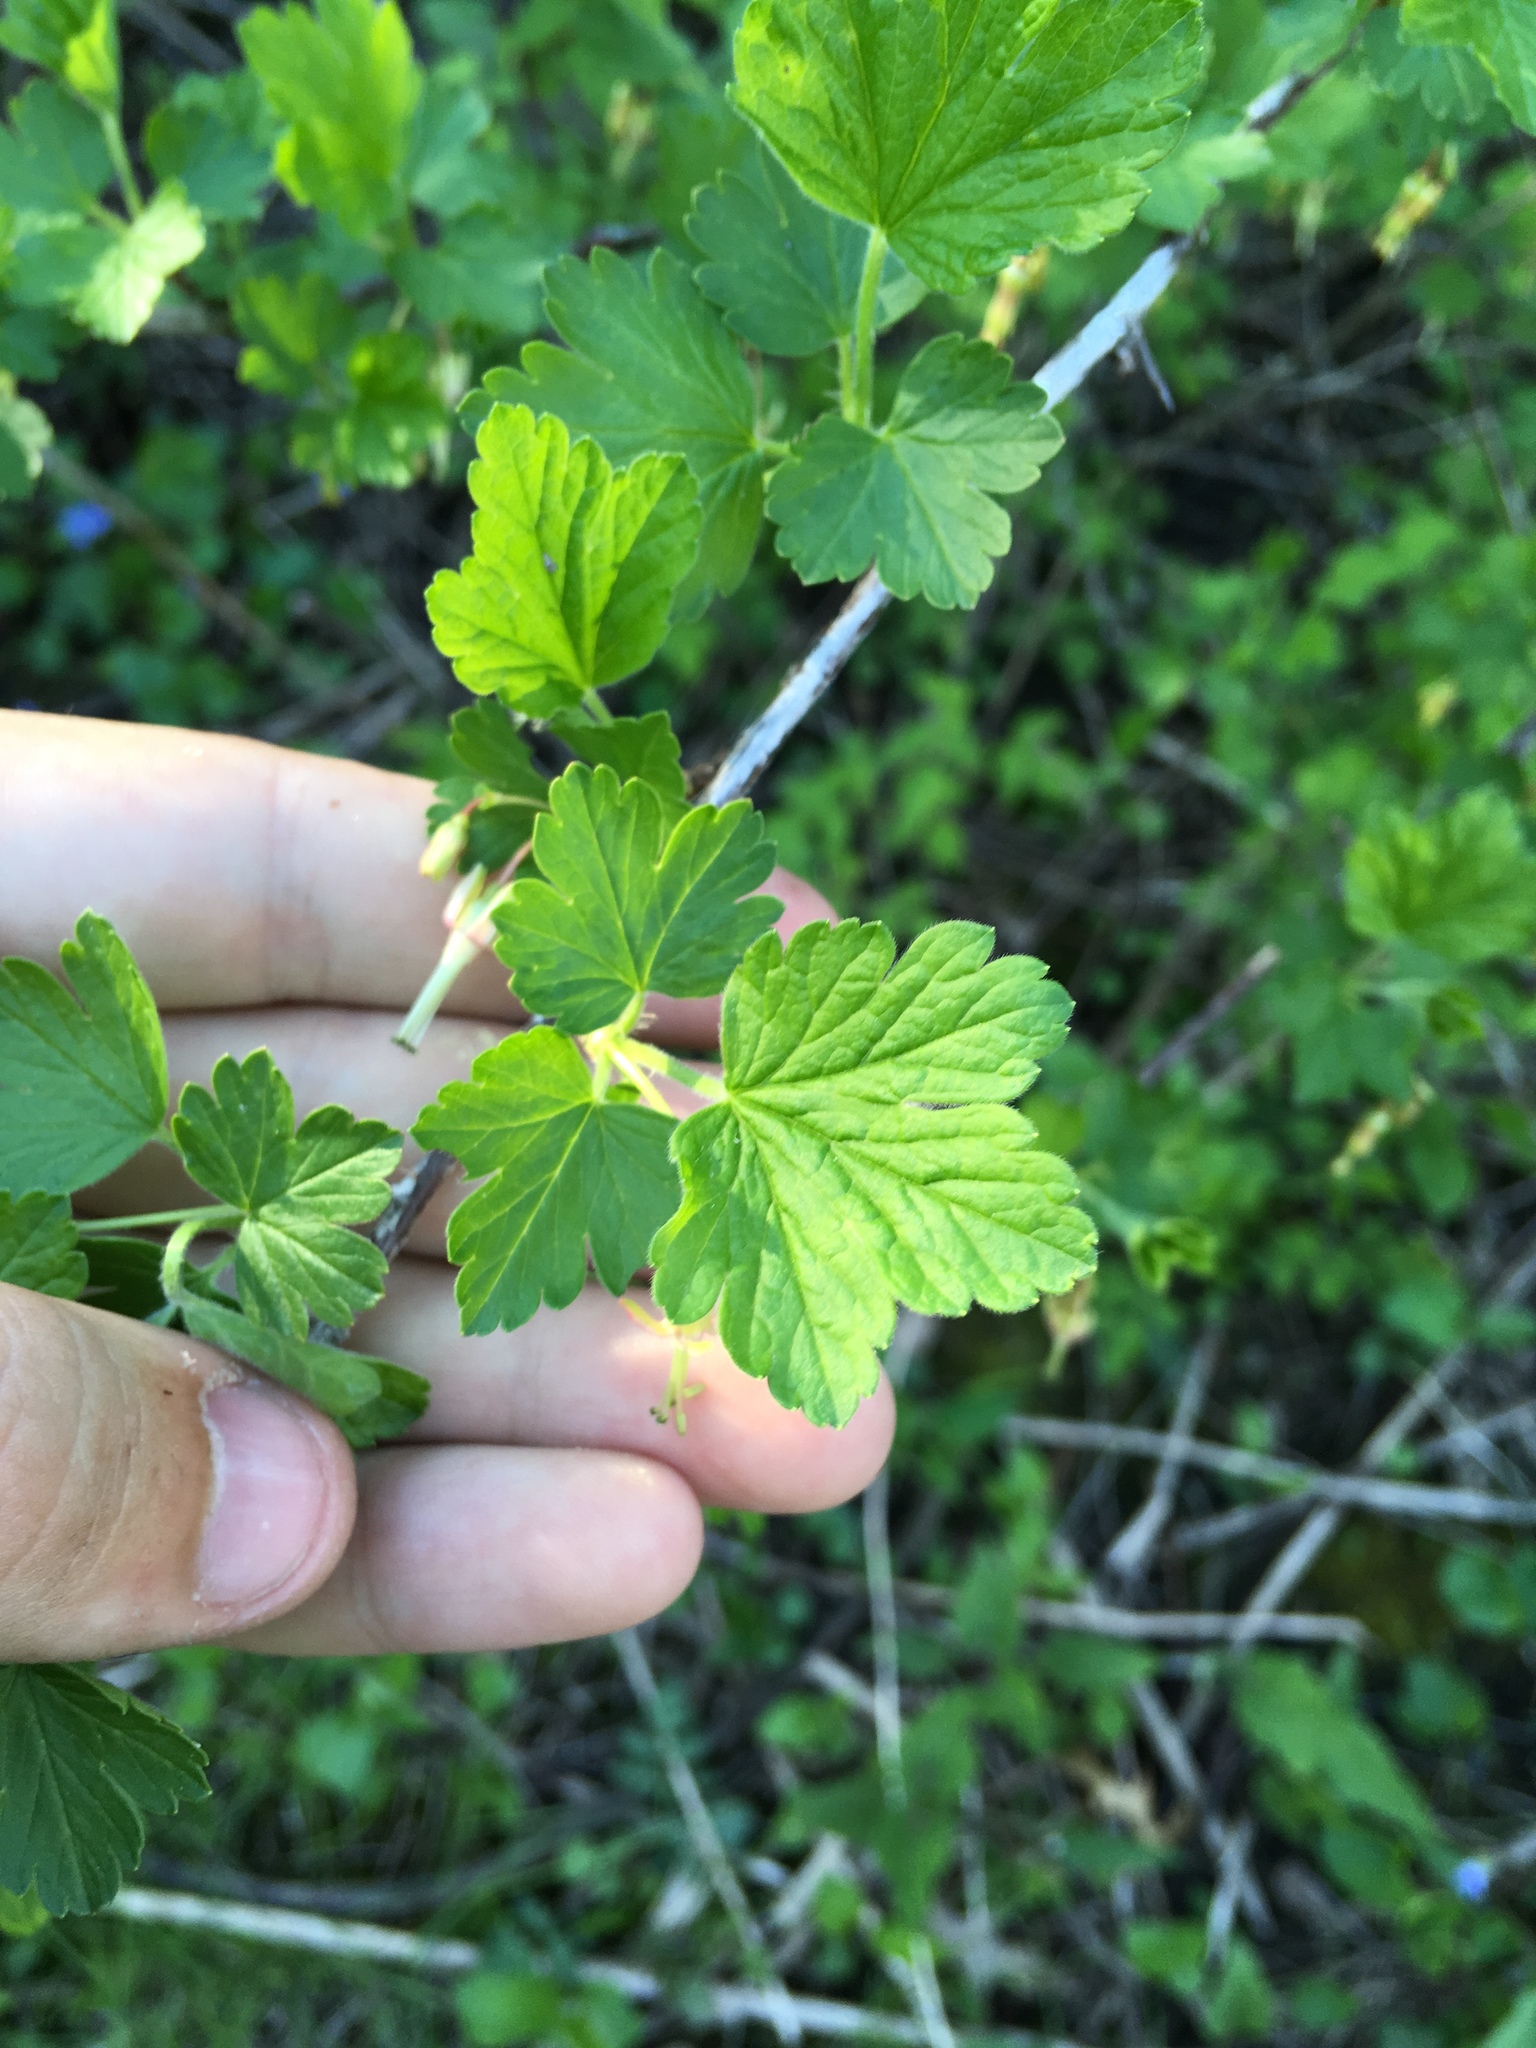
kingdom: Plantae
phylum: Tracheophyta
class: Magnoliopsida
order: Saxifragales
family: Grossulariaceae
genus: Ribes
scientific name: Ribes missouriense
